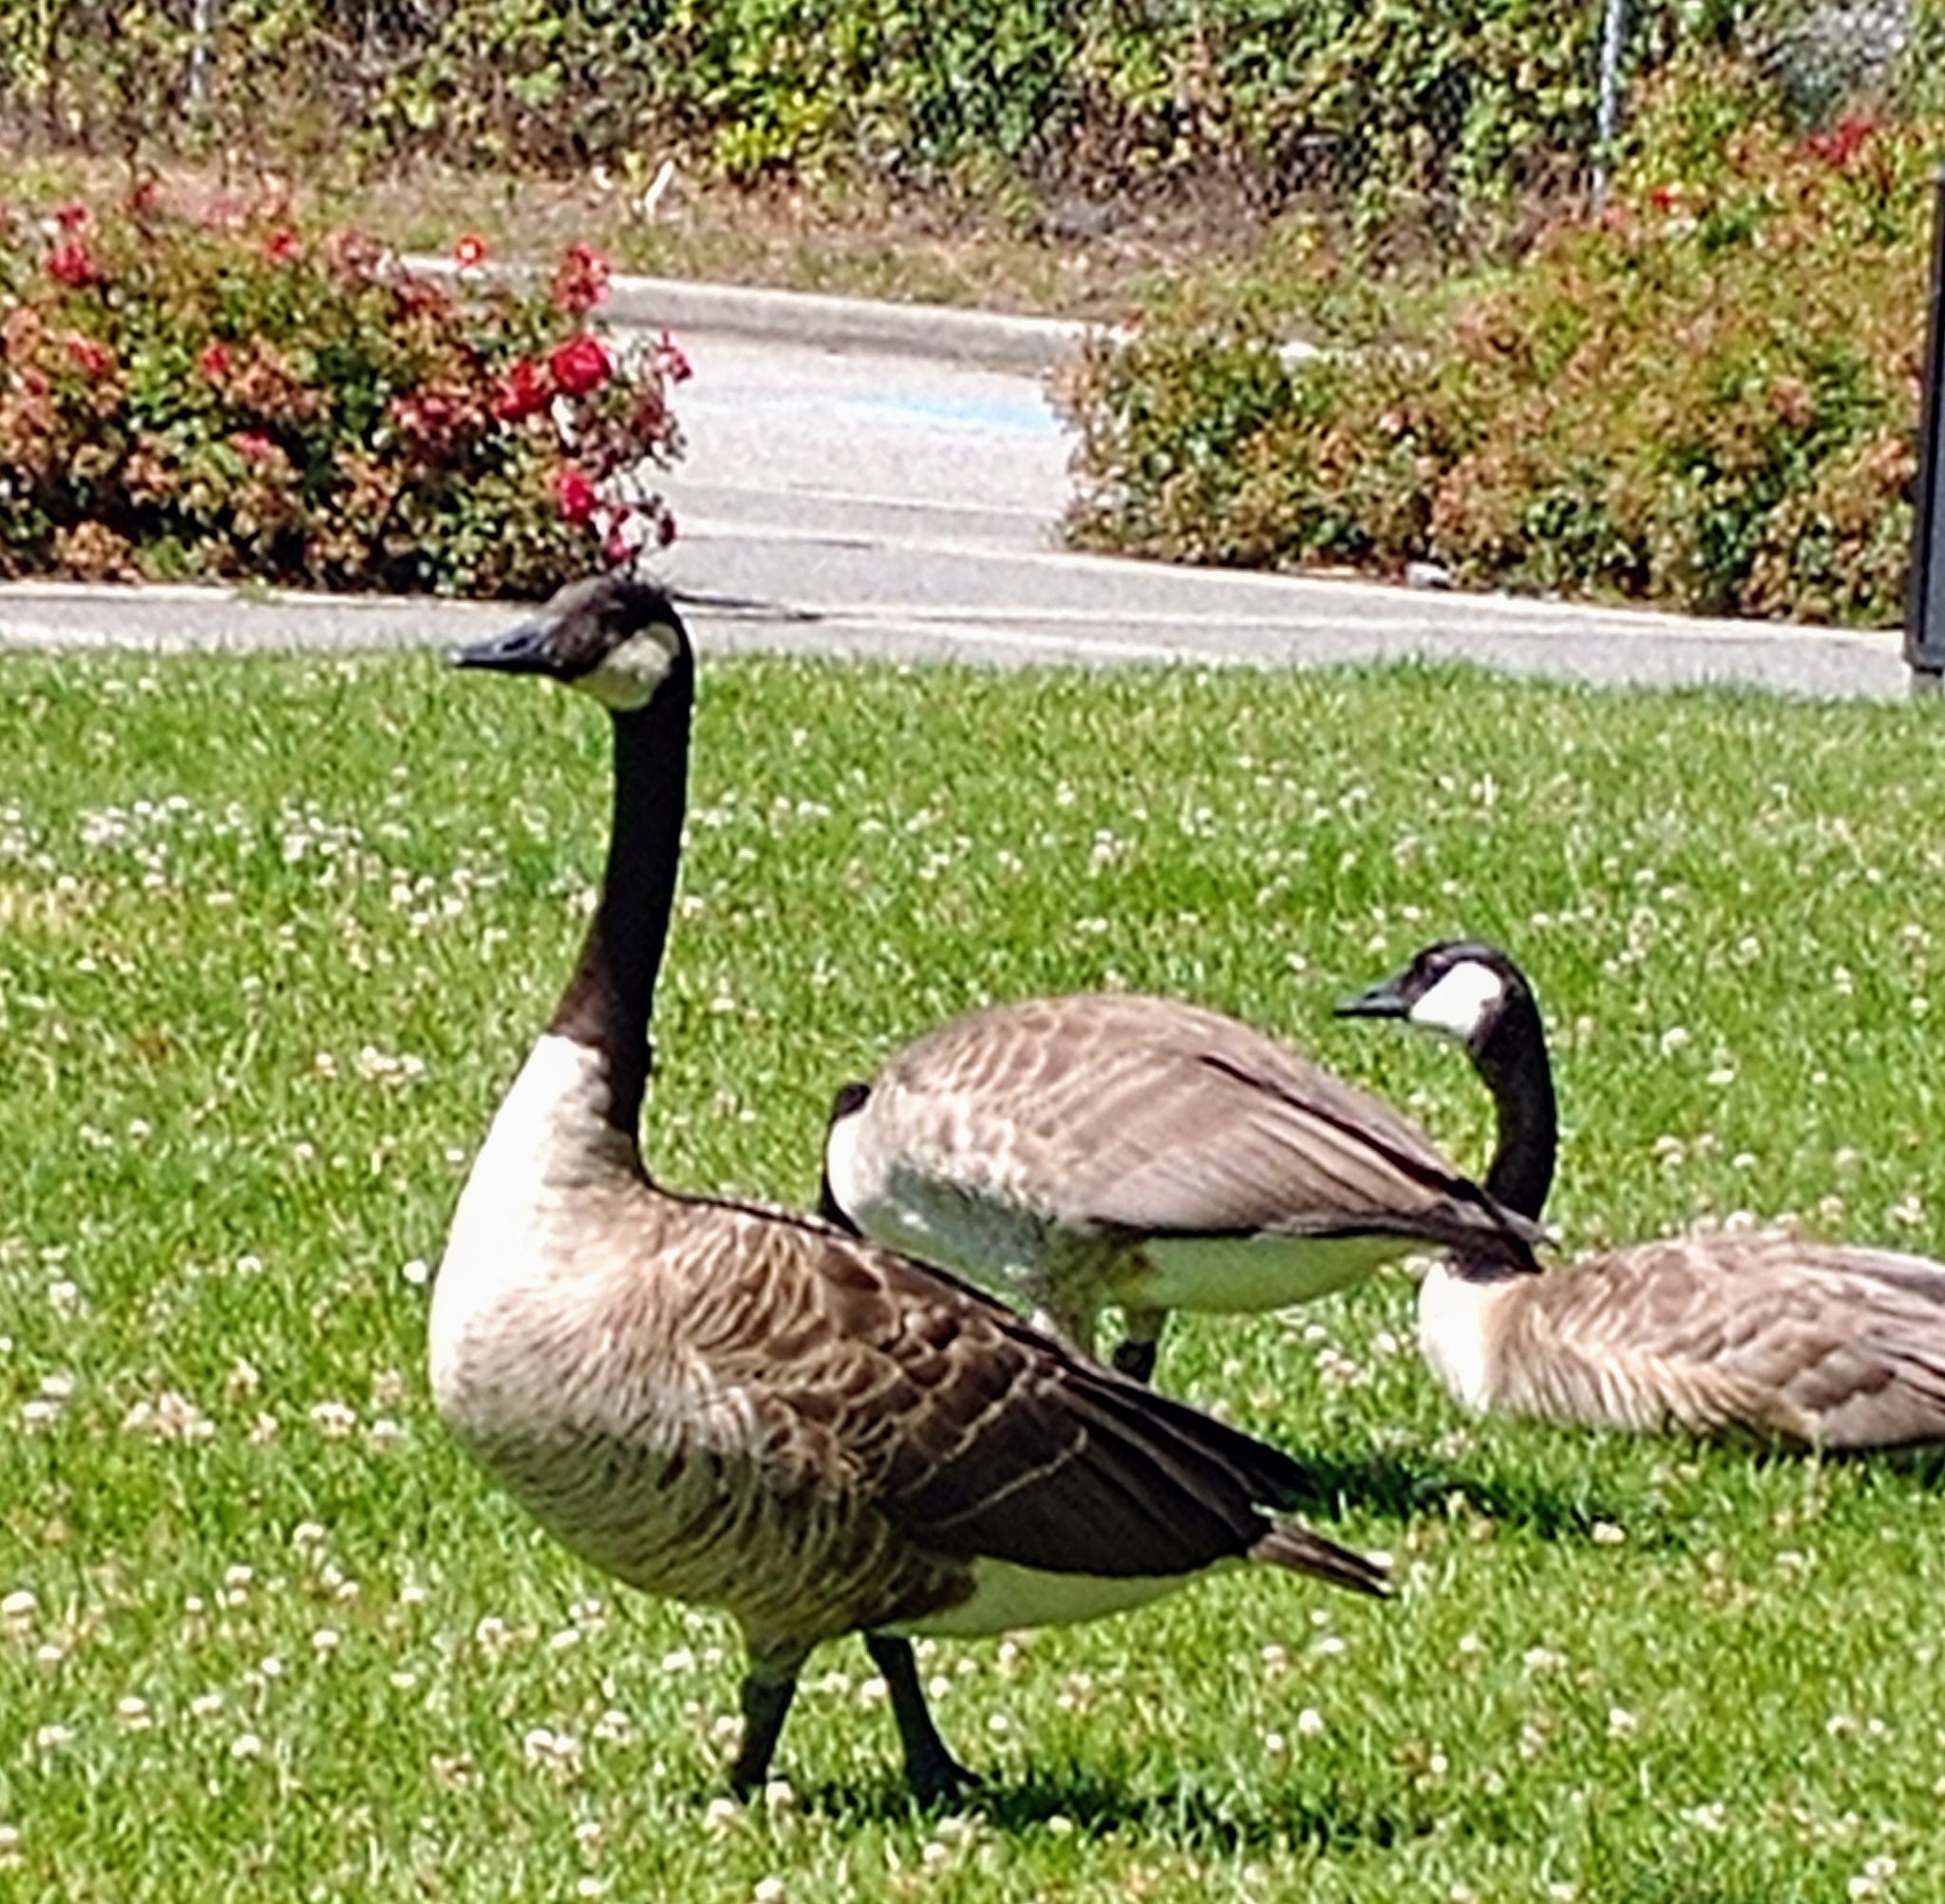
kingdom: Animalia
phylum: Chordata
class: Aves
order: Anseriformes
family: Anatidae
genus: Branta
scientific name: Branta canadensis
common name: Canada goose
